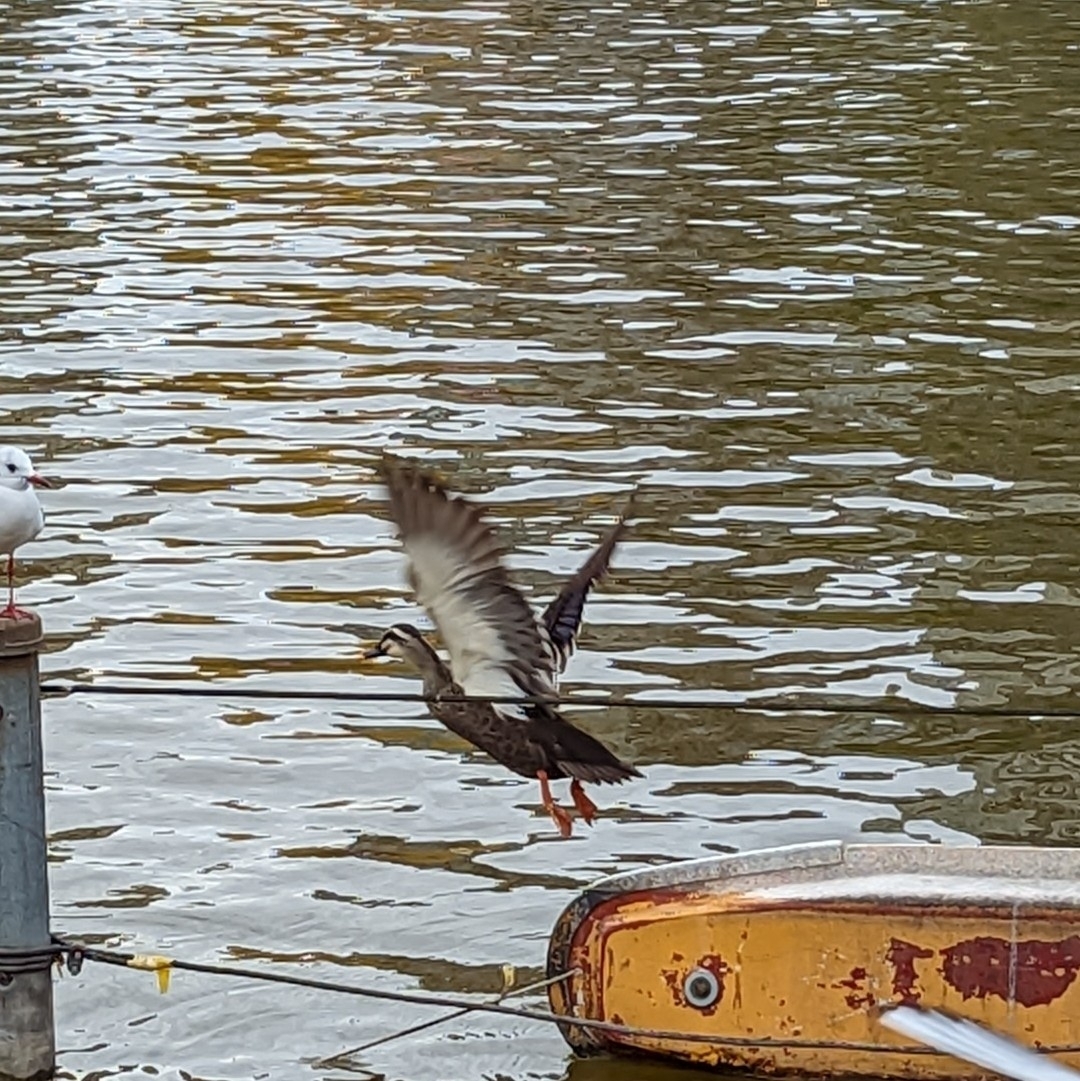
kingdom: Animalia
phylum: Chordata
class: Aves
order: Anseriformes
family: Anatidae
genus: Anas
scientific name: Anas zonorhyncha
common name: Eastern spot-billed duck
